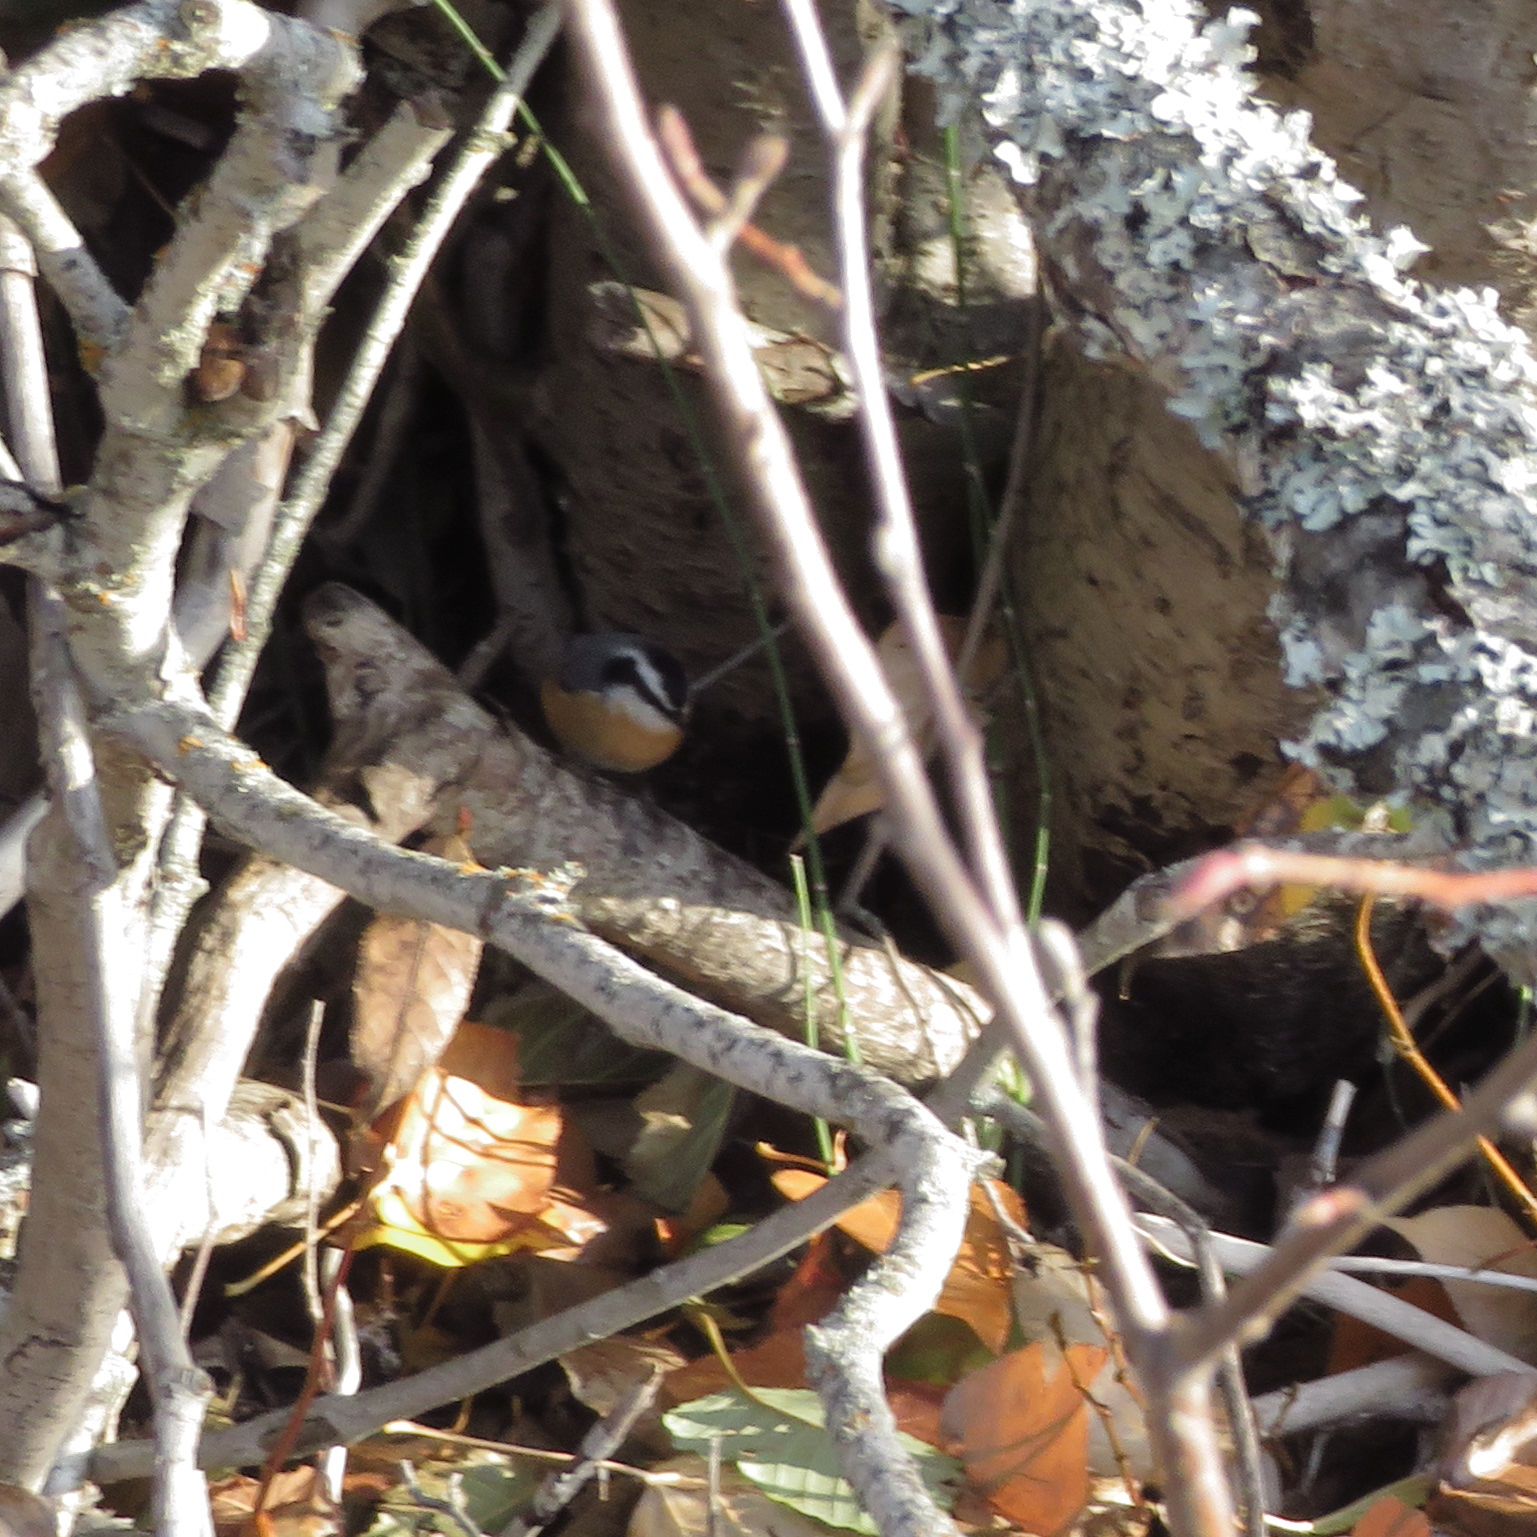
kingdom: Animalia
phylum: Chordata
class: Aves
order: Passeriformes
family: Sittidae
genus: Sitta
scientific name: Sitta canadensis
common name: Red-breasted nuthatch
